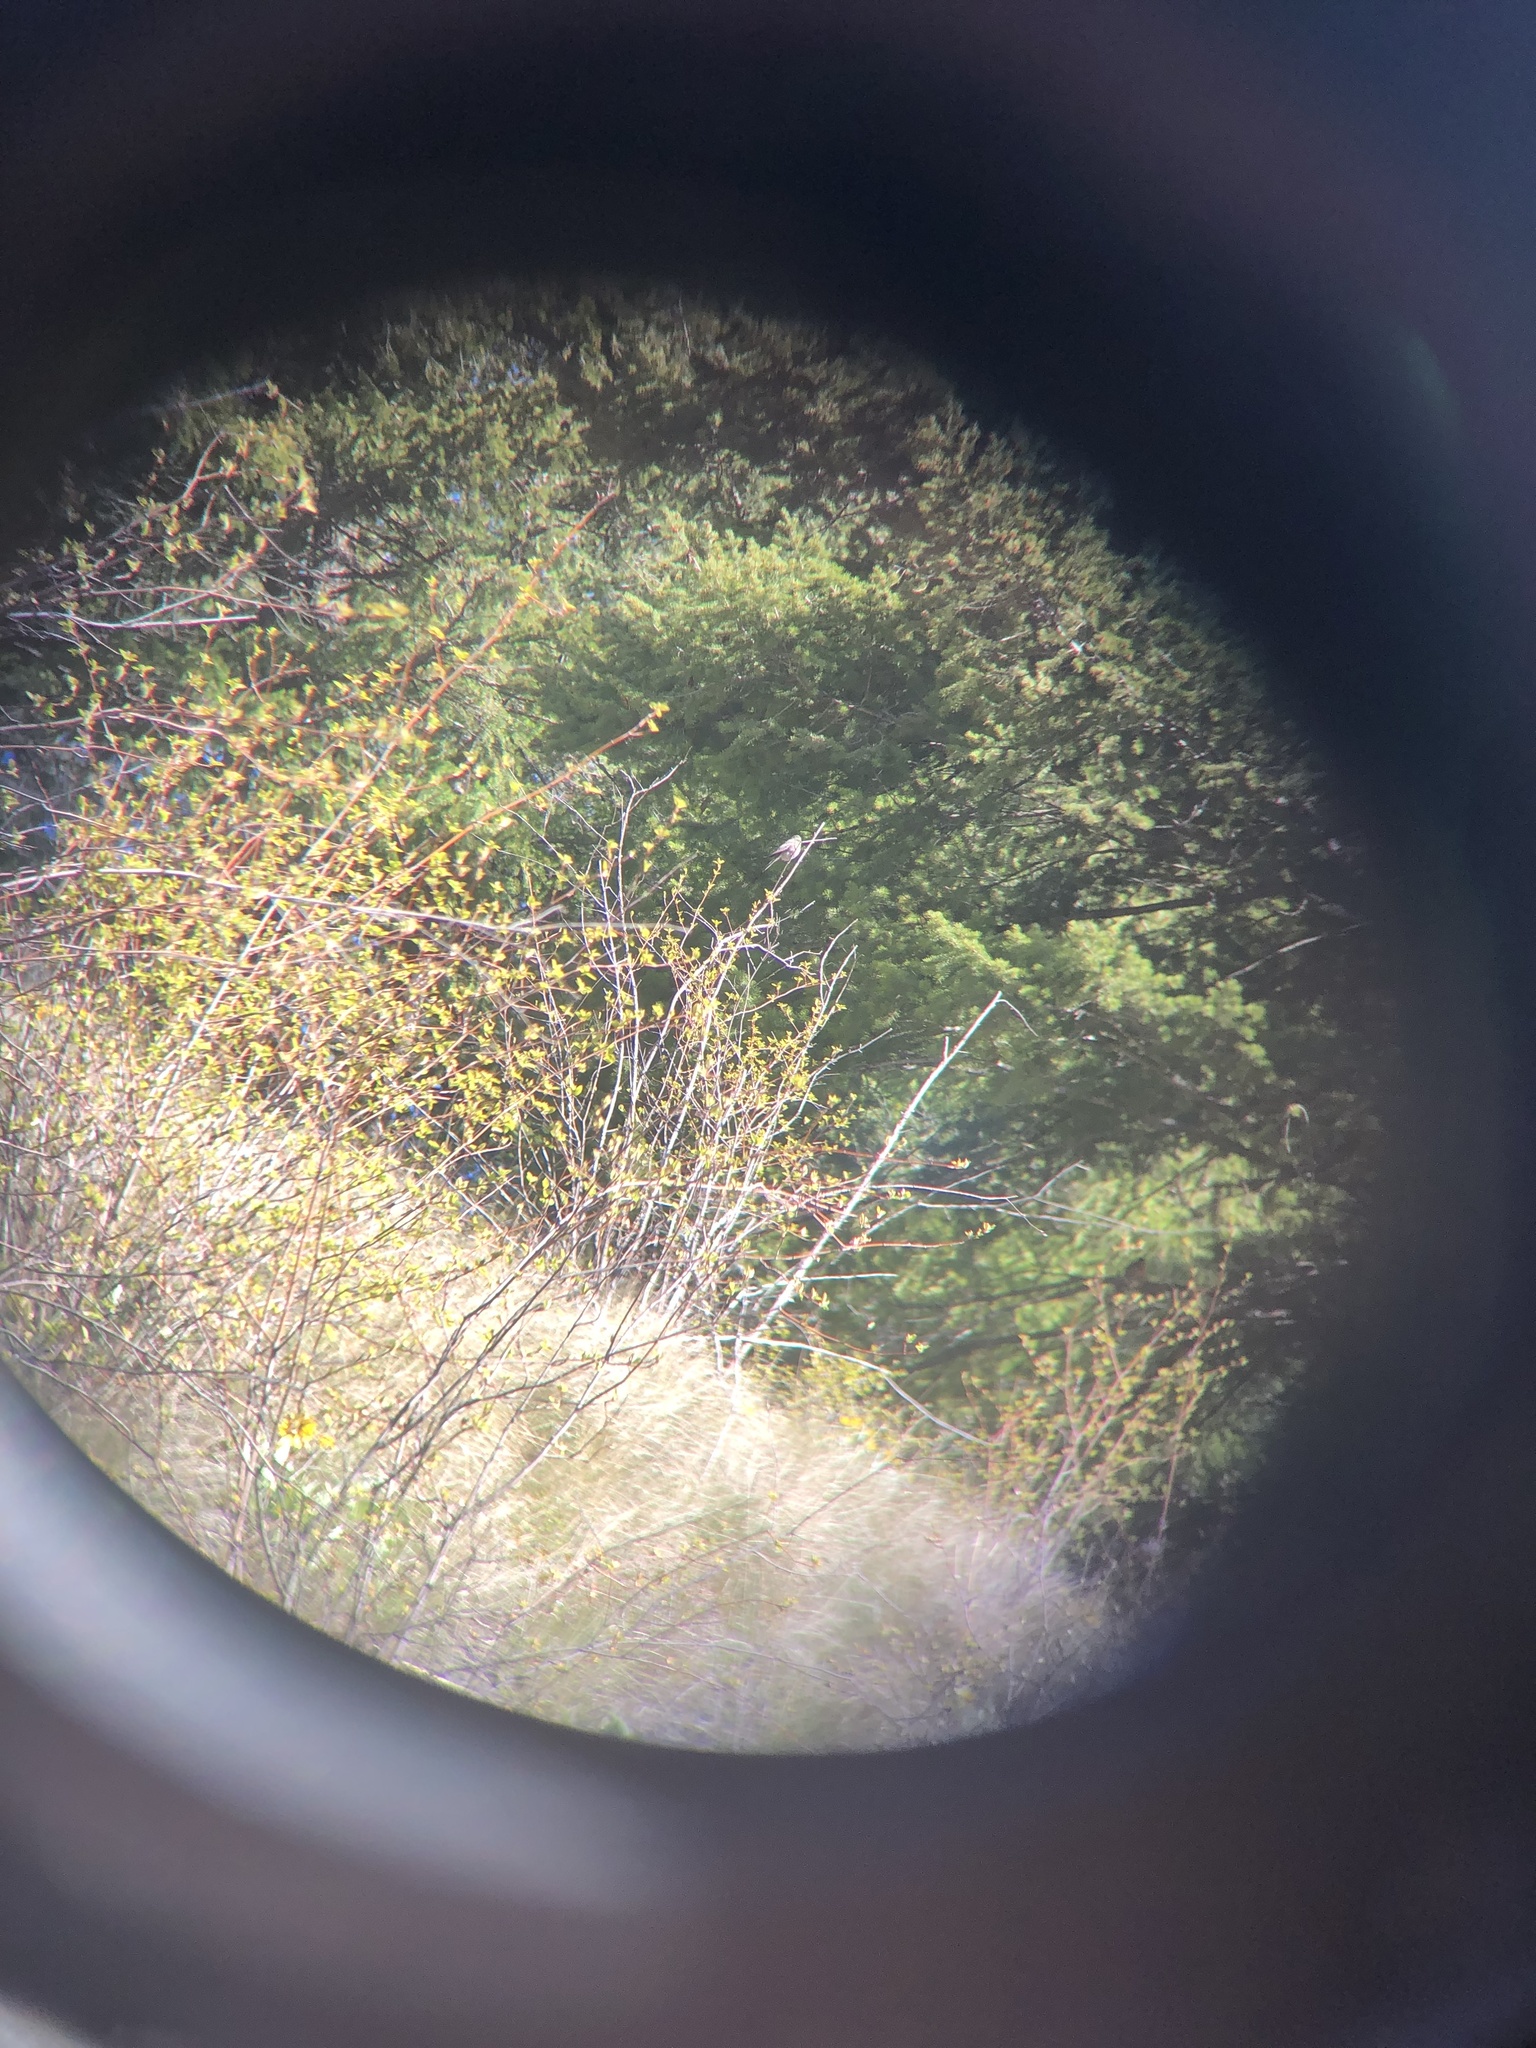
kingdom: Animalia
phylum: Chordata
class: Aves
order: Passeriformes
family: Turdidae
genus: Myadestes
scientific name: Myadestes townsendi
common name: Townsend's solitaire
